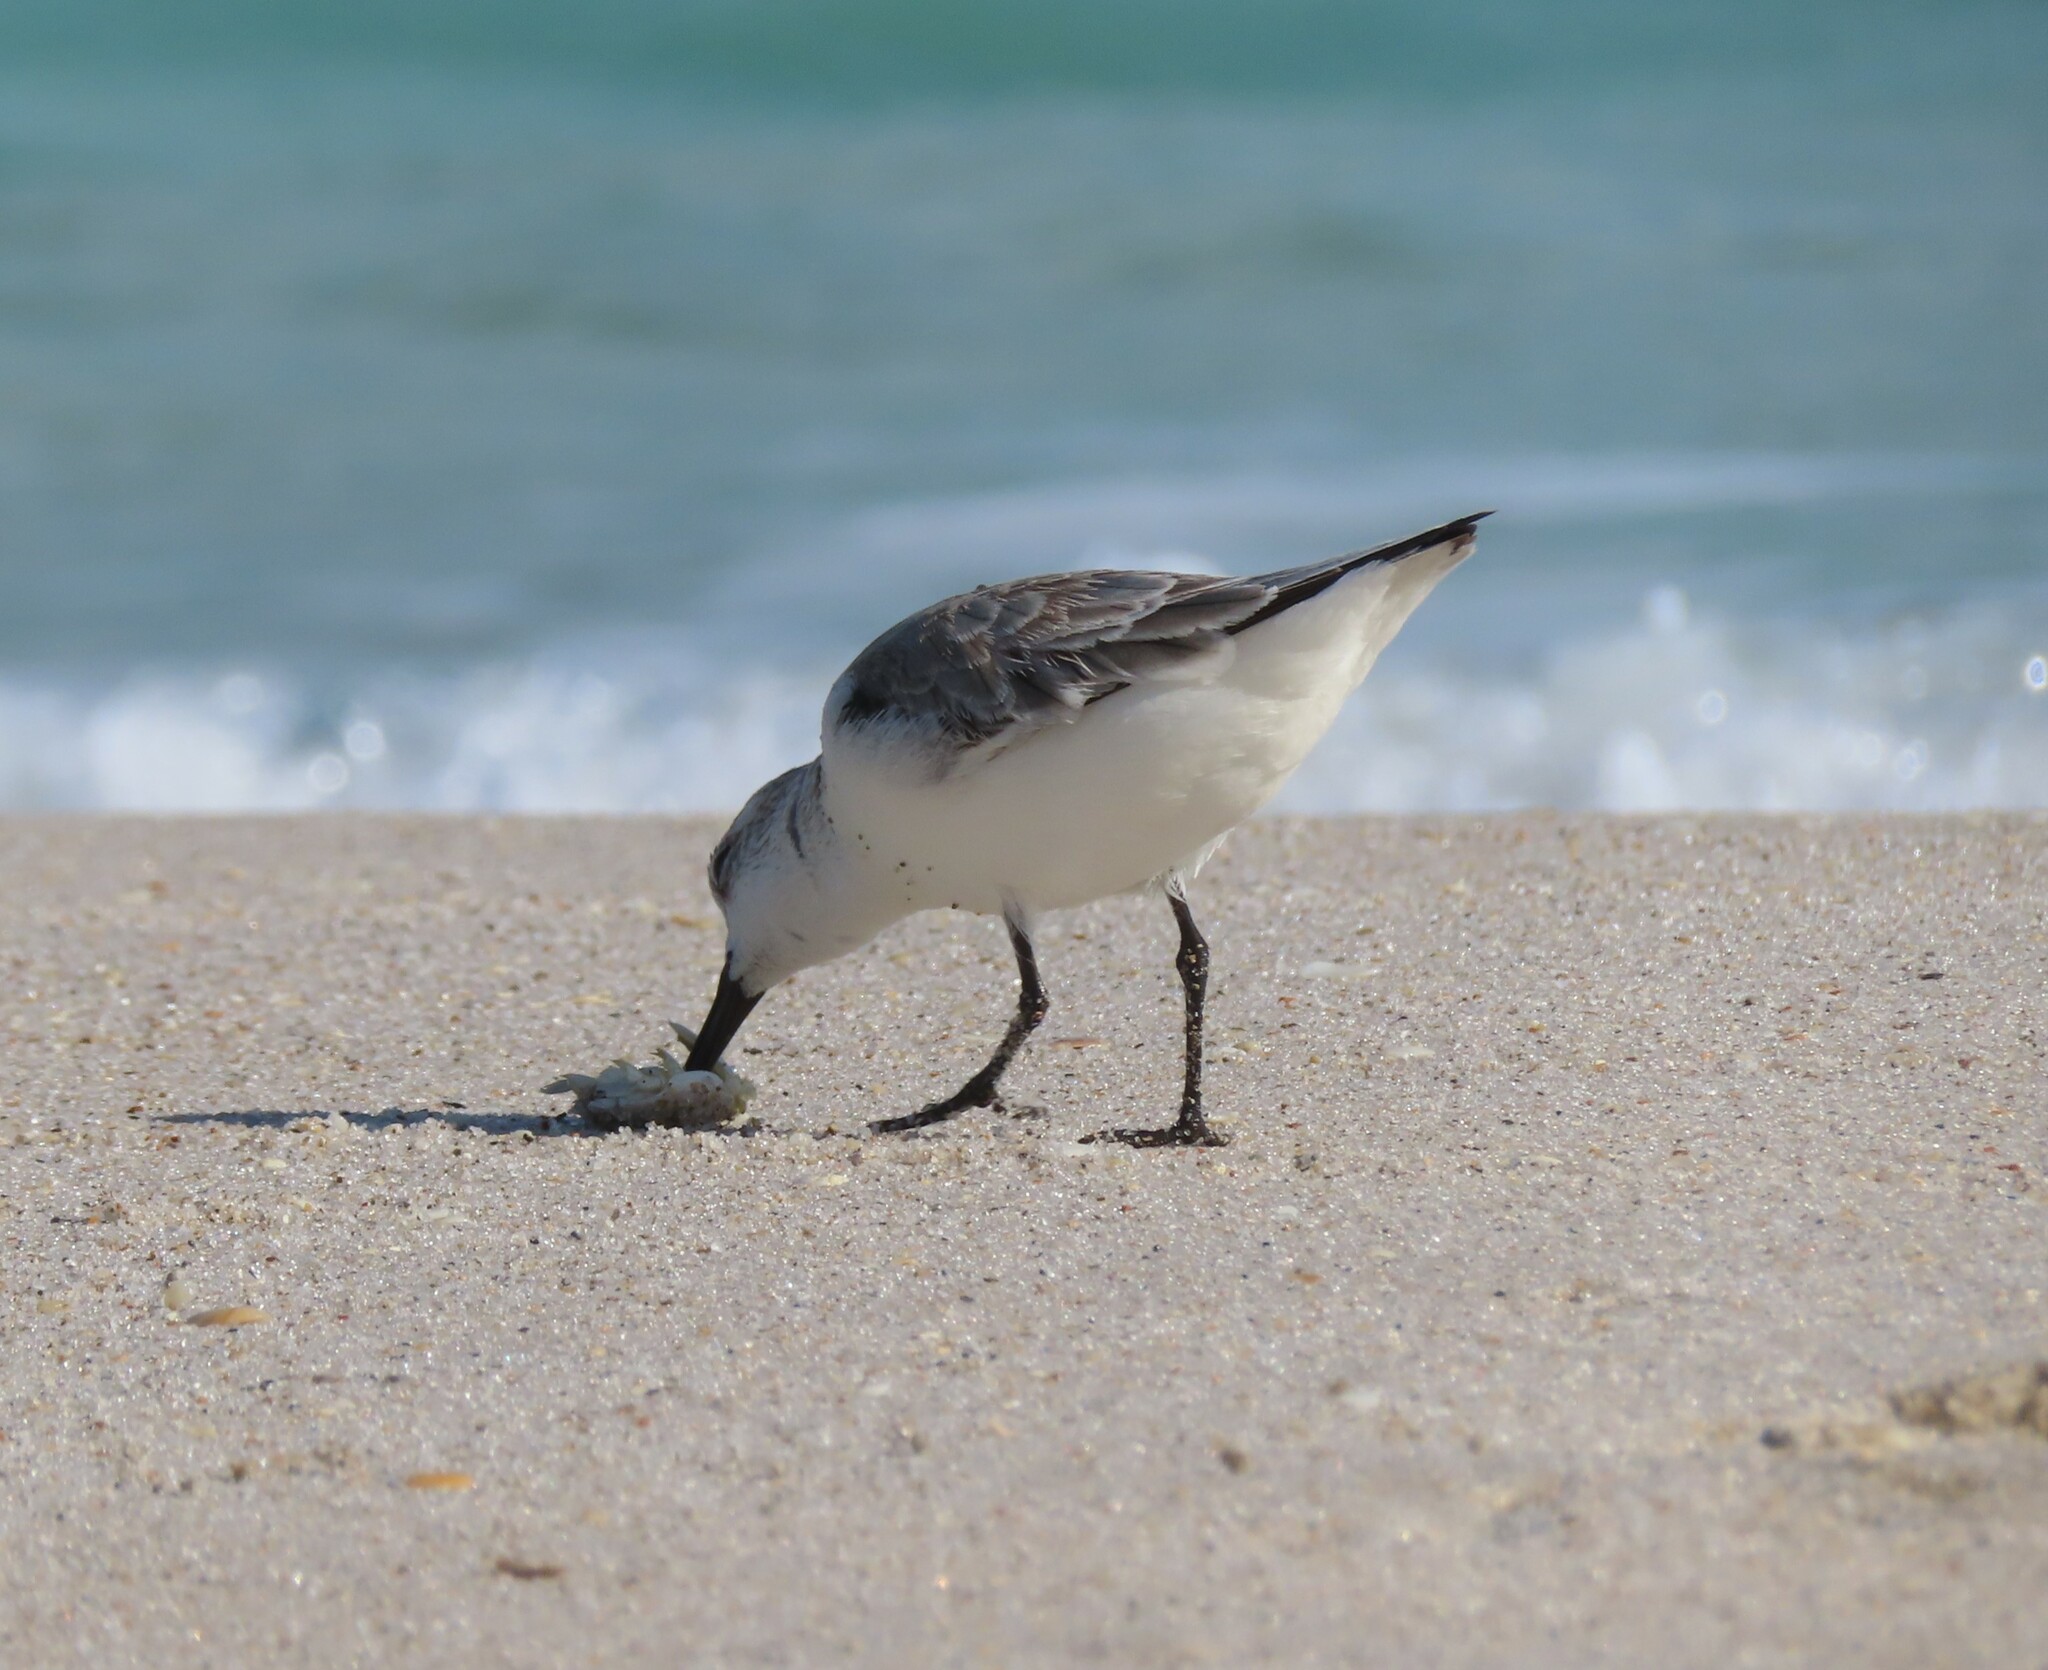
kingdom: Animalia
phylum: Chordata
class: Aves
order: Charadriiformes
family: Scolopacidae
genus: Calidris
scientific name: Calidris alba
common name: Sanderling
